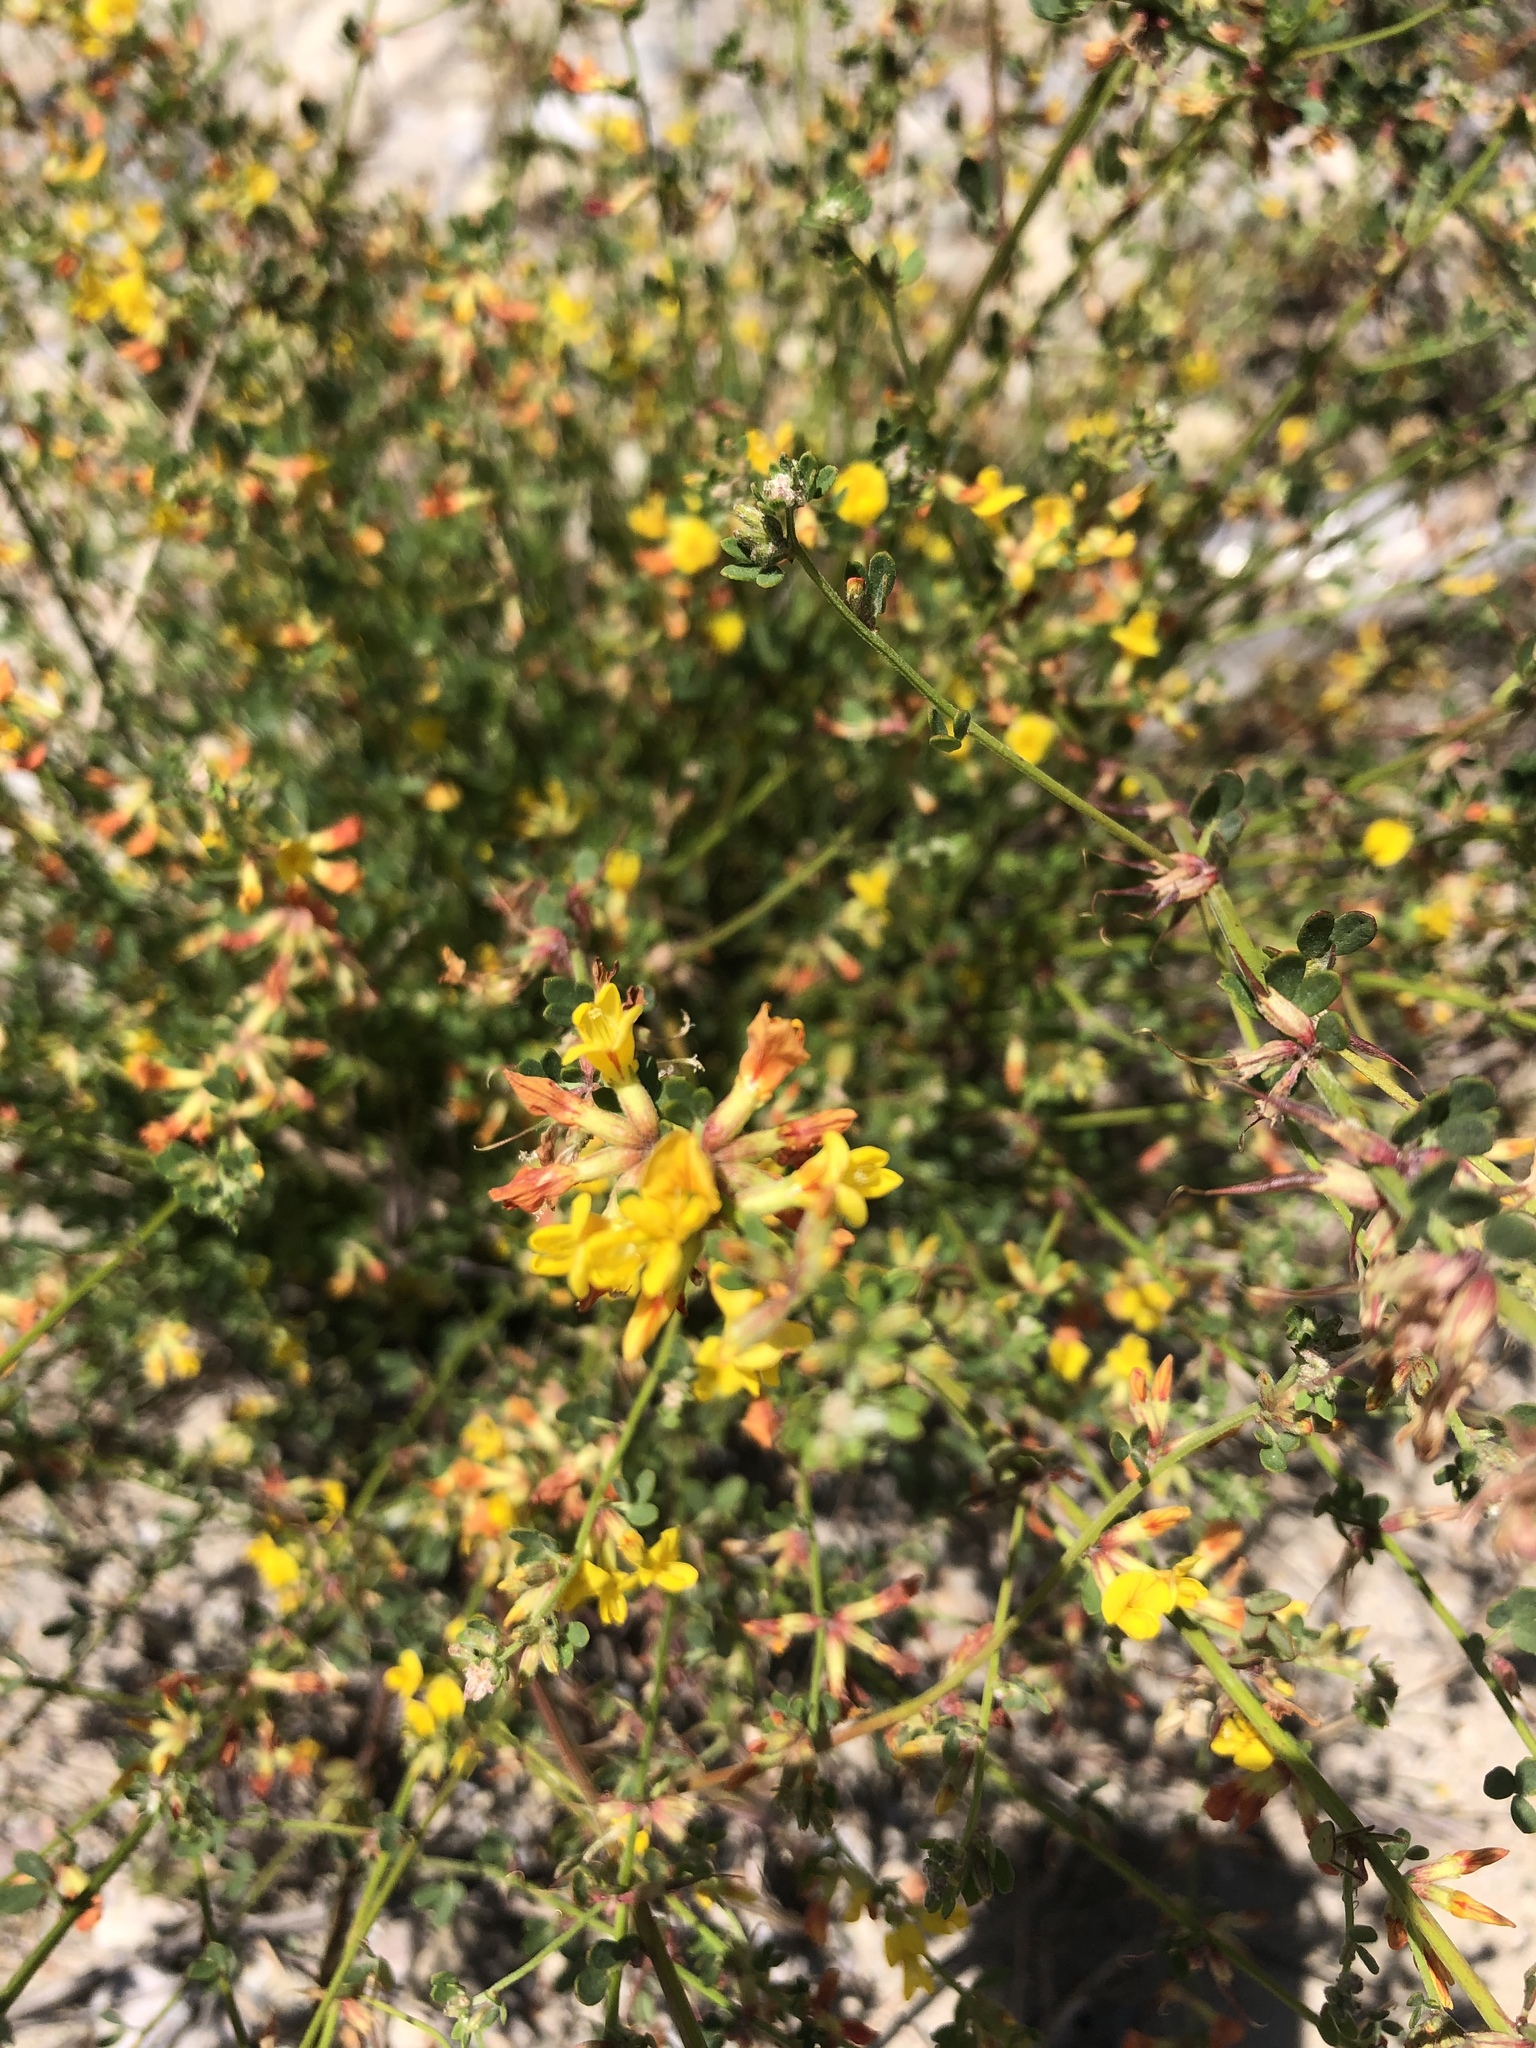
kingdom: Plantae
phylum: Tracheophyta
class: Magnoliopsida
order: Fabales
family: Fabaceae
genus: Acmispon
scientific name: Acmispon watsonii
